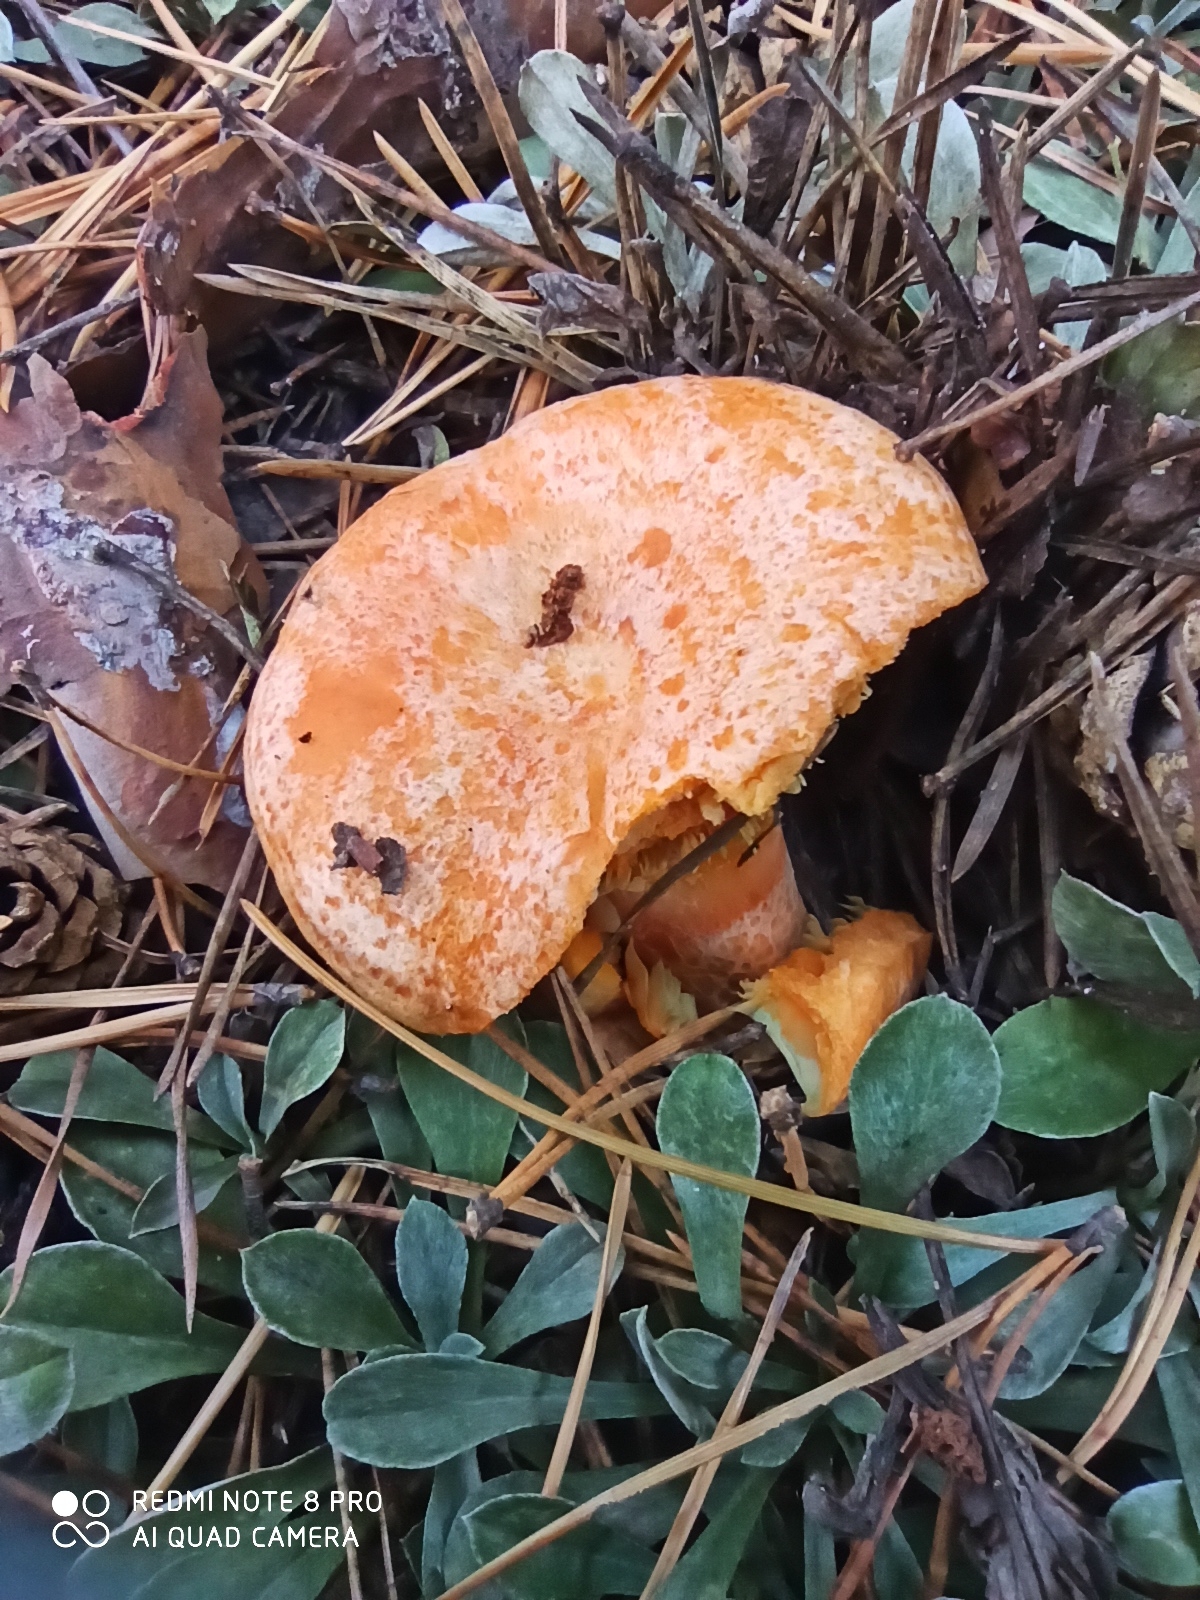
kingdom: Fungi
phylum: Basidiomycota
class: Agaricomycetes
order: Russulales
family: Russulaceae
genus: Lactarius
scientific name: Lactarius deliciosus
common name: Saffron milk-cap
